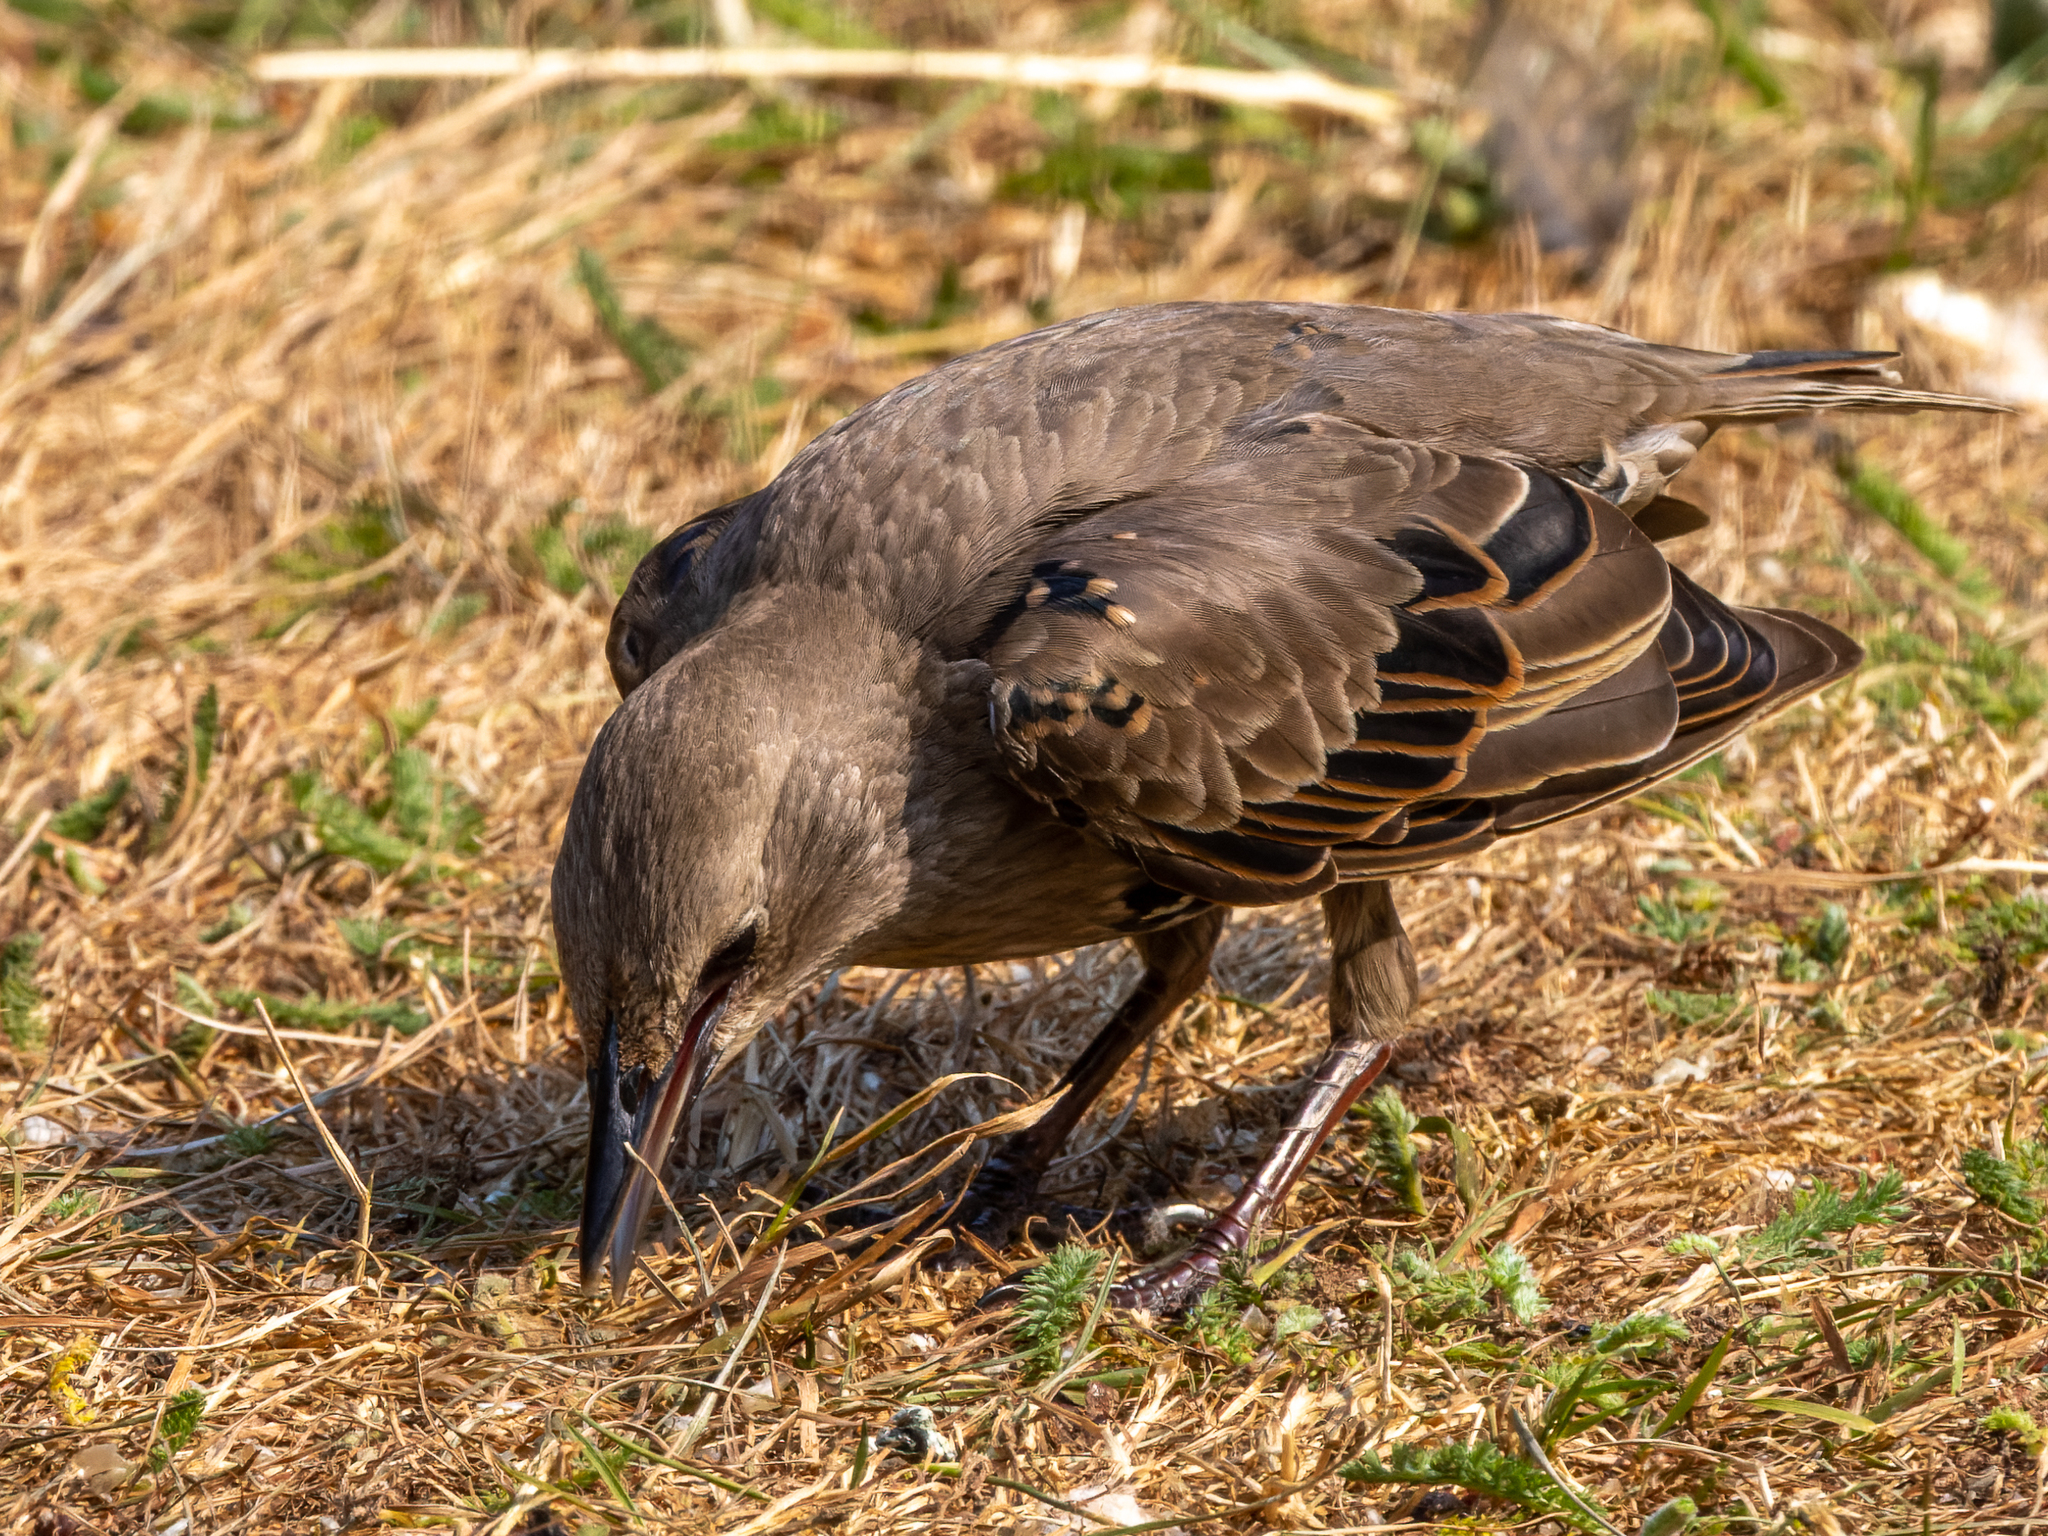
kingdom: Animalia
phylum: Chordata
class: Aves
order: Passeriformes
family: Sturnidae
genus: Sturnus
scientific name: Sturnus vulgaris
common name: Common starling
